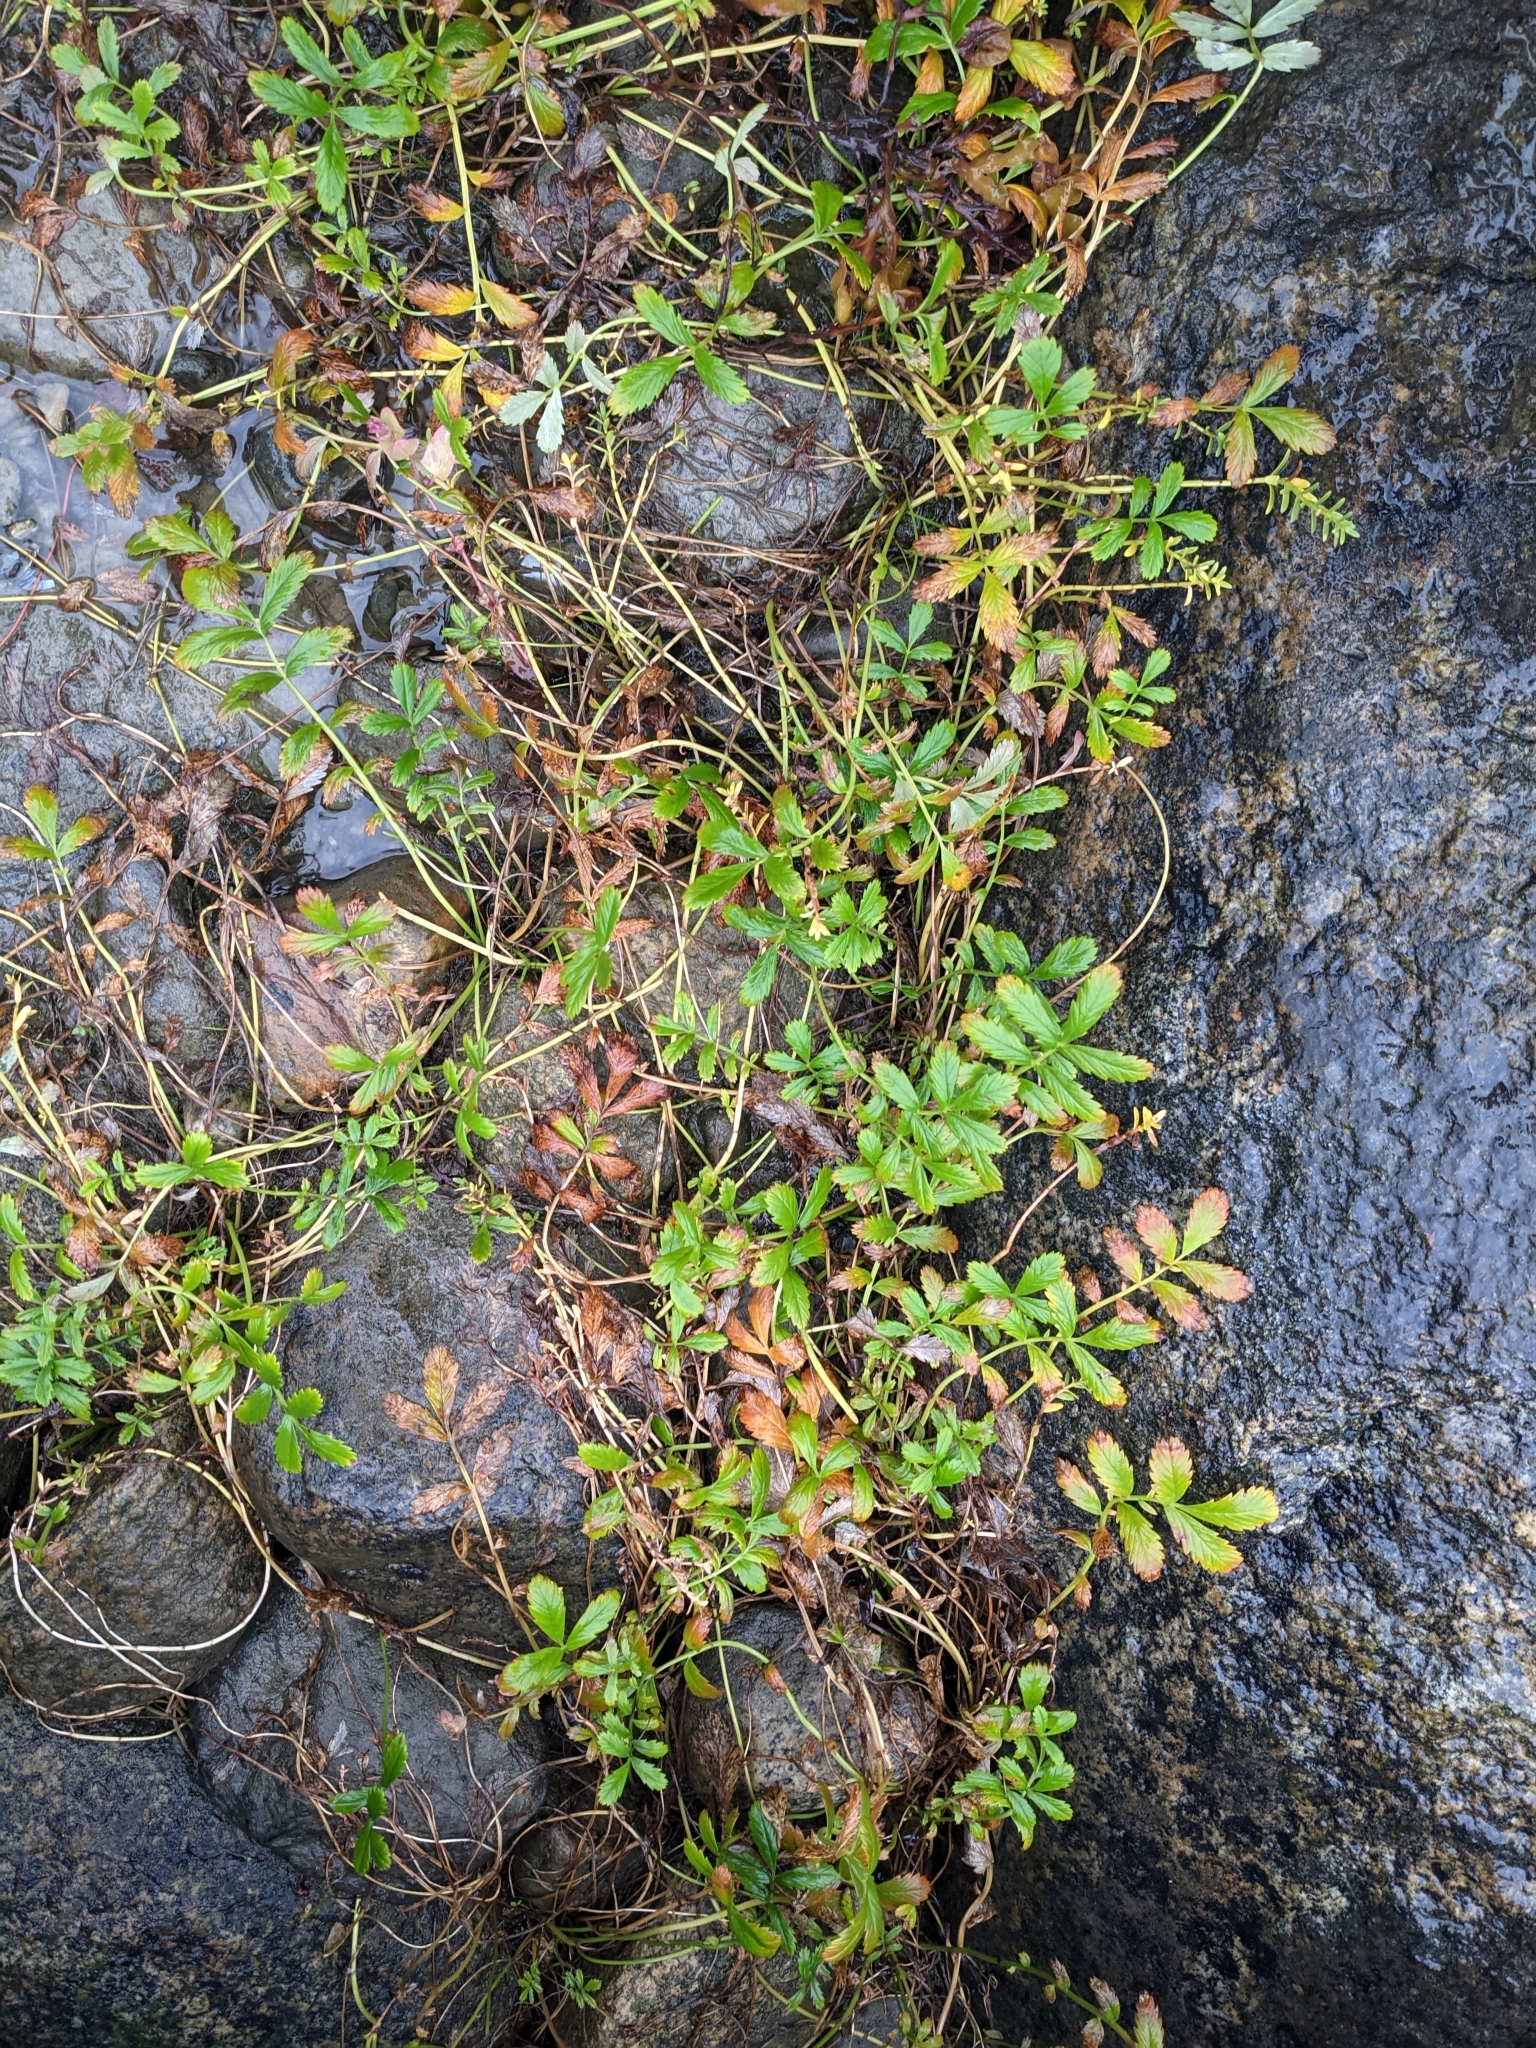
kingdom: Plantae
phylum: Tracheophyta
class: Magnoliopsida
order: Rosales
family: Rosaceae
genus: Argentina
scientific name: Argentina anserina
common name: Common silverweed
